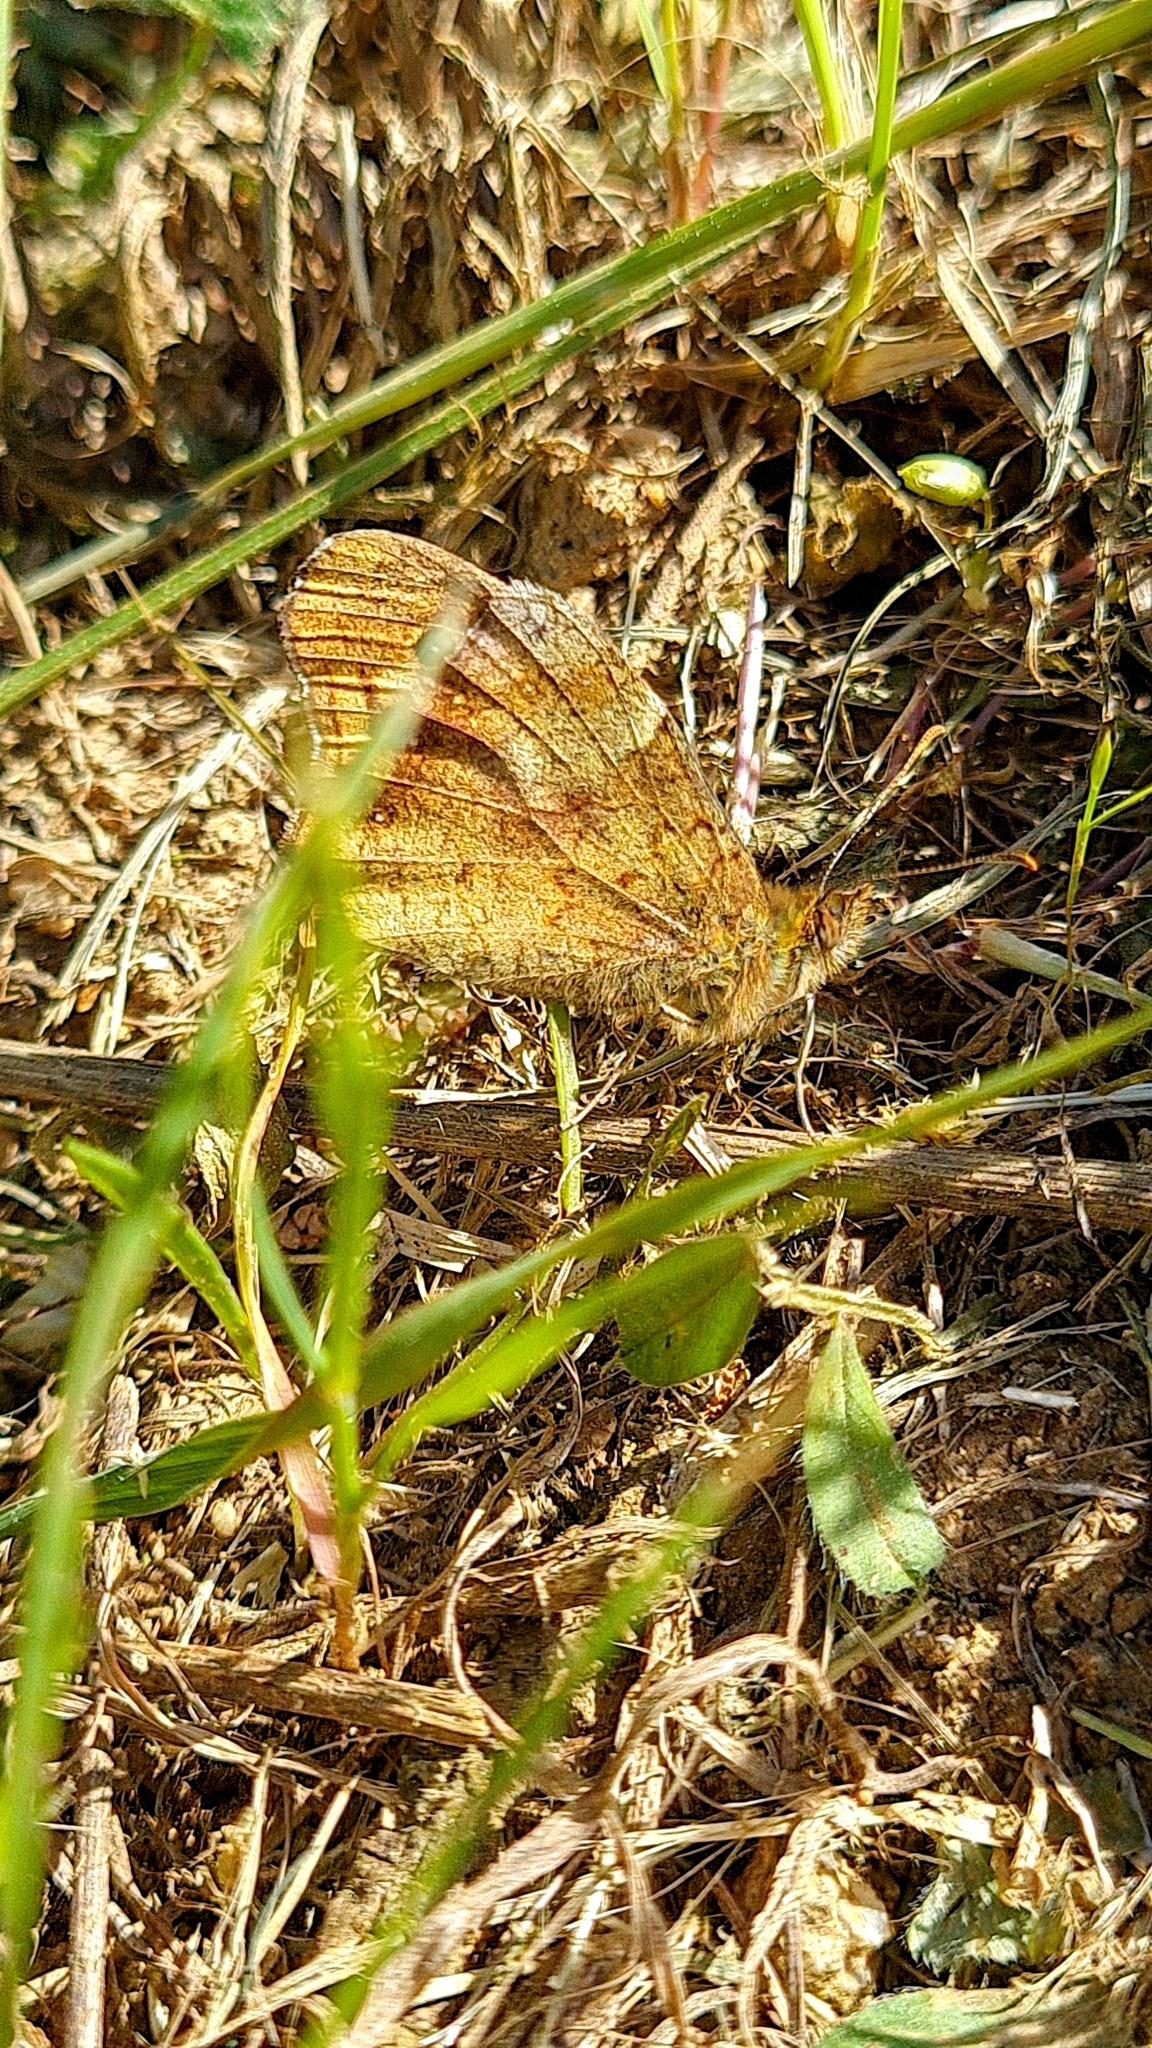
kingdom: Animalia
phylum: Arthropoda
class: Insecta
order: Lepidoptera
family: Nymphalidae
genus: Pararge
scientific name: Pararge aegeria
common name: Speckled wood
